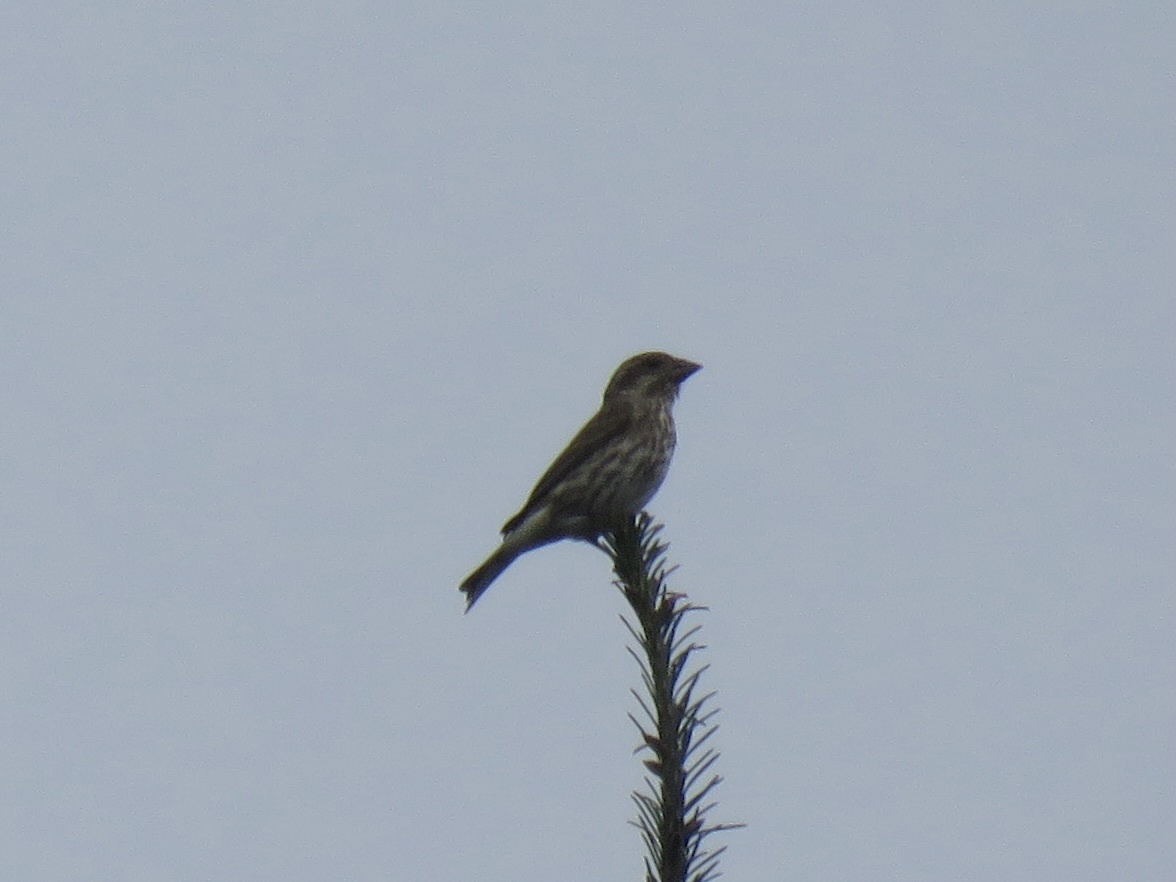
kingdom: Animalia
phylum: Chordata
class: Aves
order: Passeriformes
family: Fringillidae
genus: Haemorhous
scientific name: Haemorhous purpureus
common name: Purple finch
